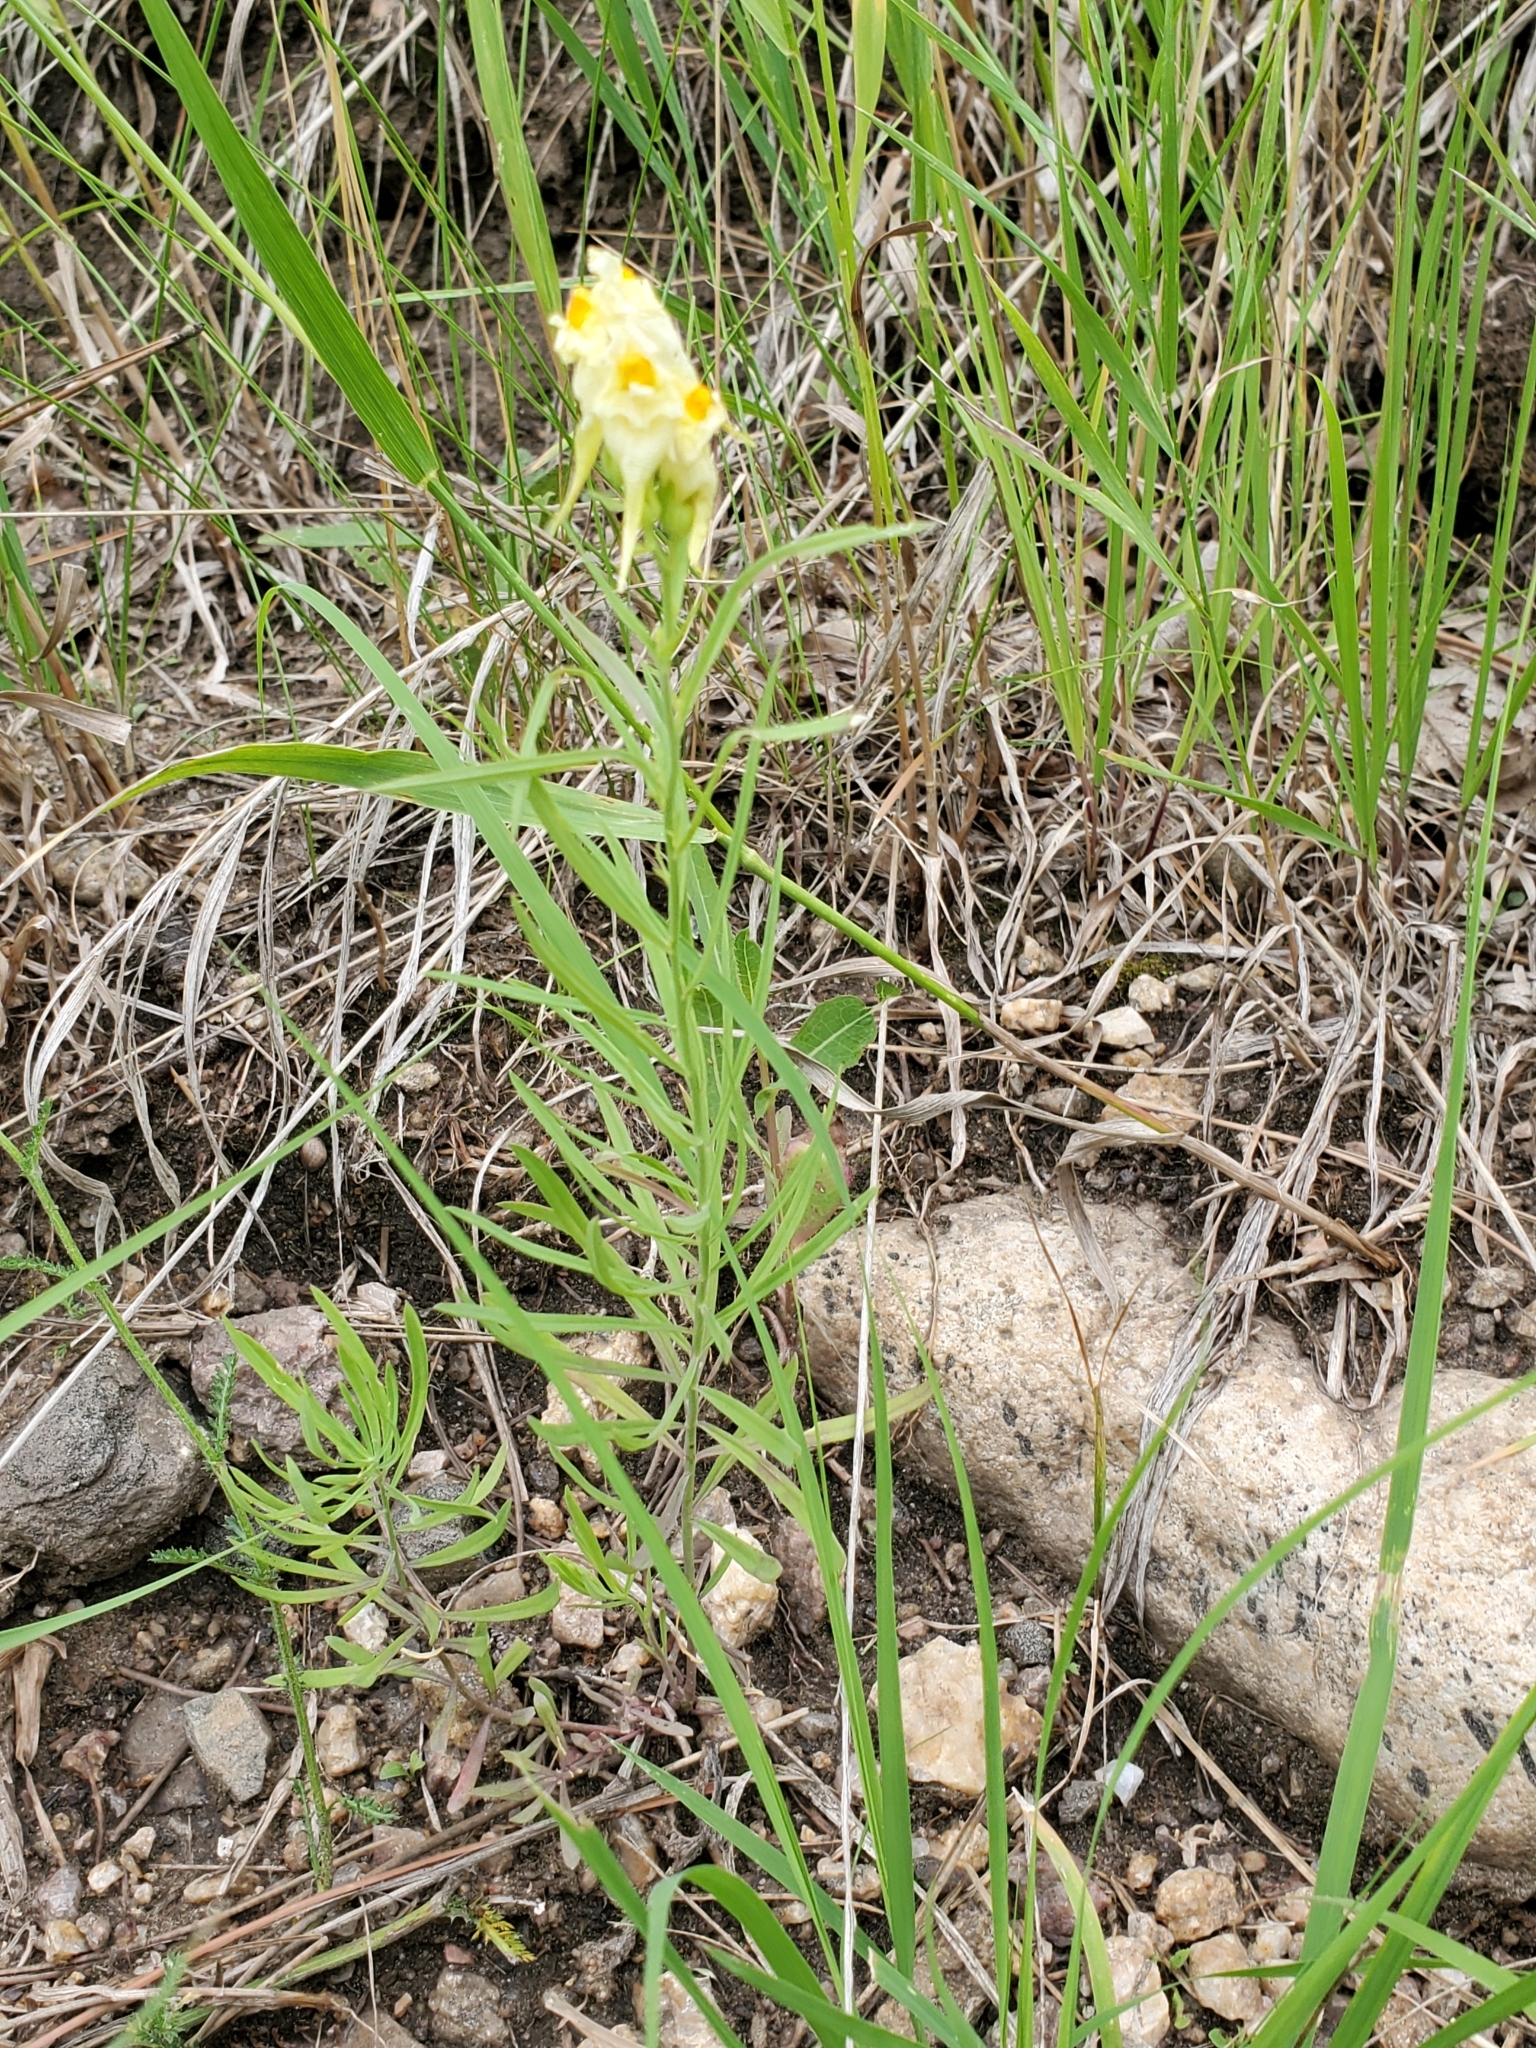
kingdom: Plantae
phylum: Tracheophyta
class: Magnoliopsida
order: Lamiales
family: Plantaginaceae
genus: Linaria
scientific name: Linaria vulgaris
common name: Butter and eggs
